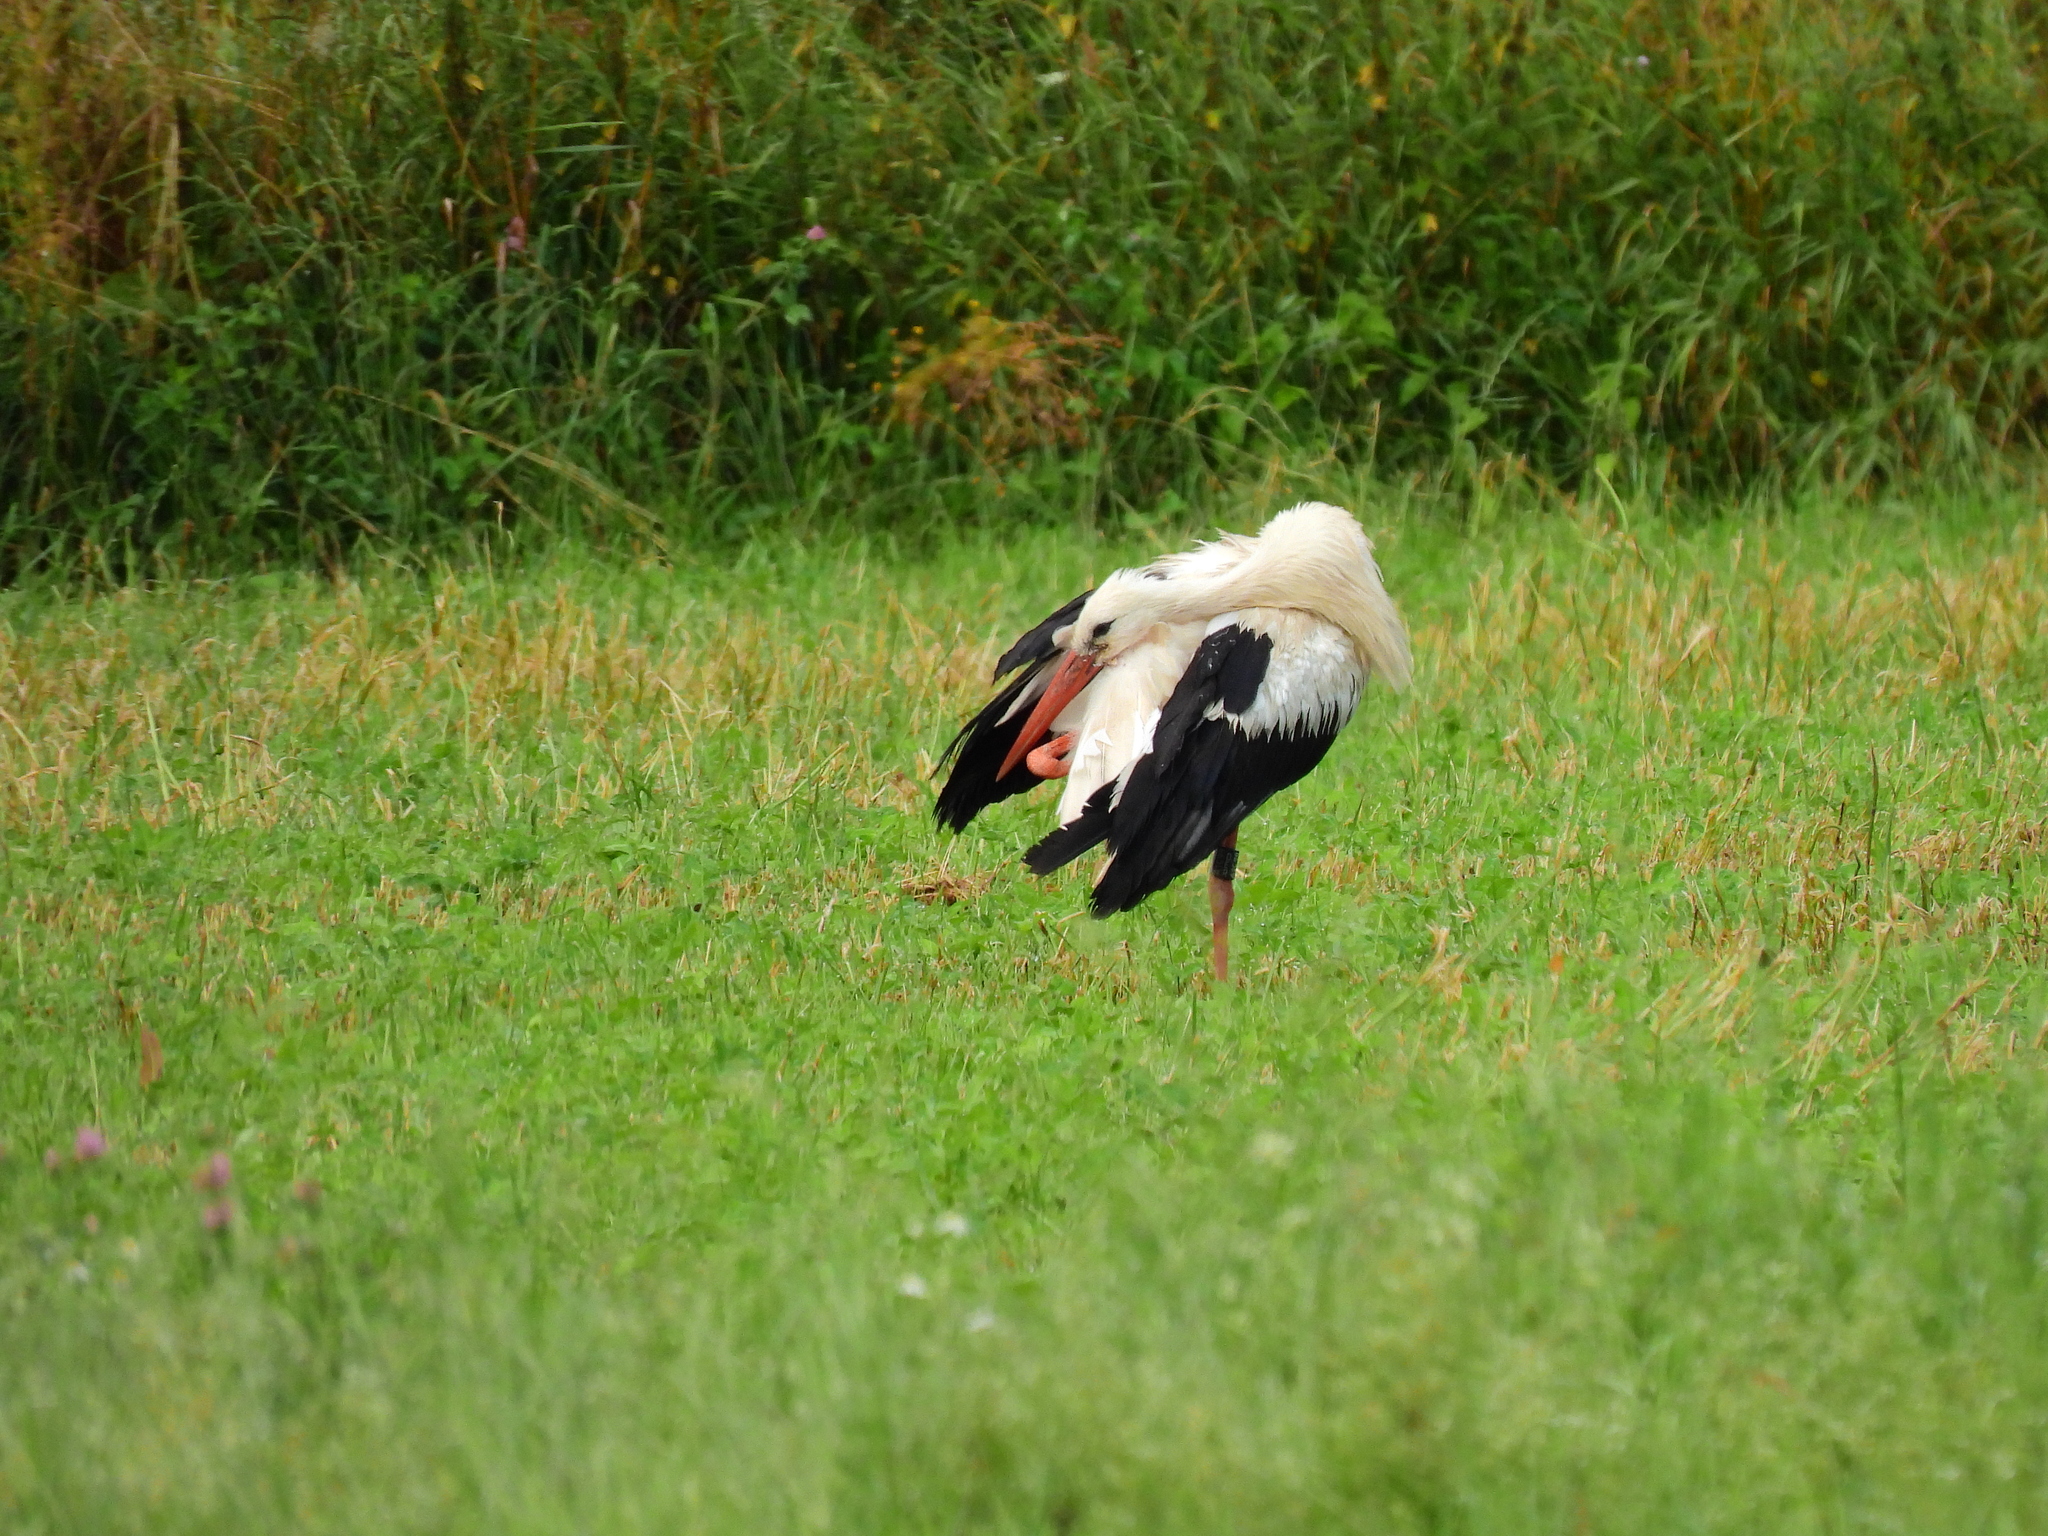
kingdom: Animalia
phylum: Chordata
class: Aves
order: Ciconiiformes
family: Ciconiidae
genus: Ciconia
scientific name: Ciconia ciconia
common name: White stork
